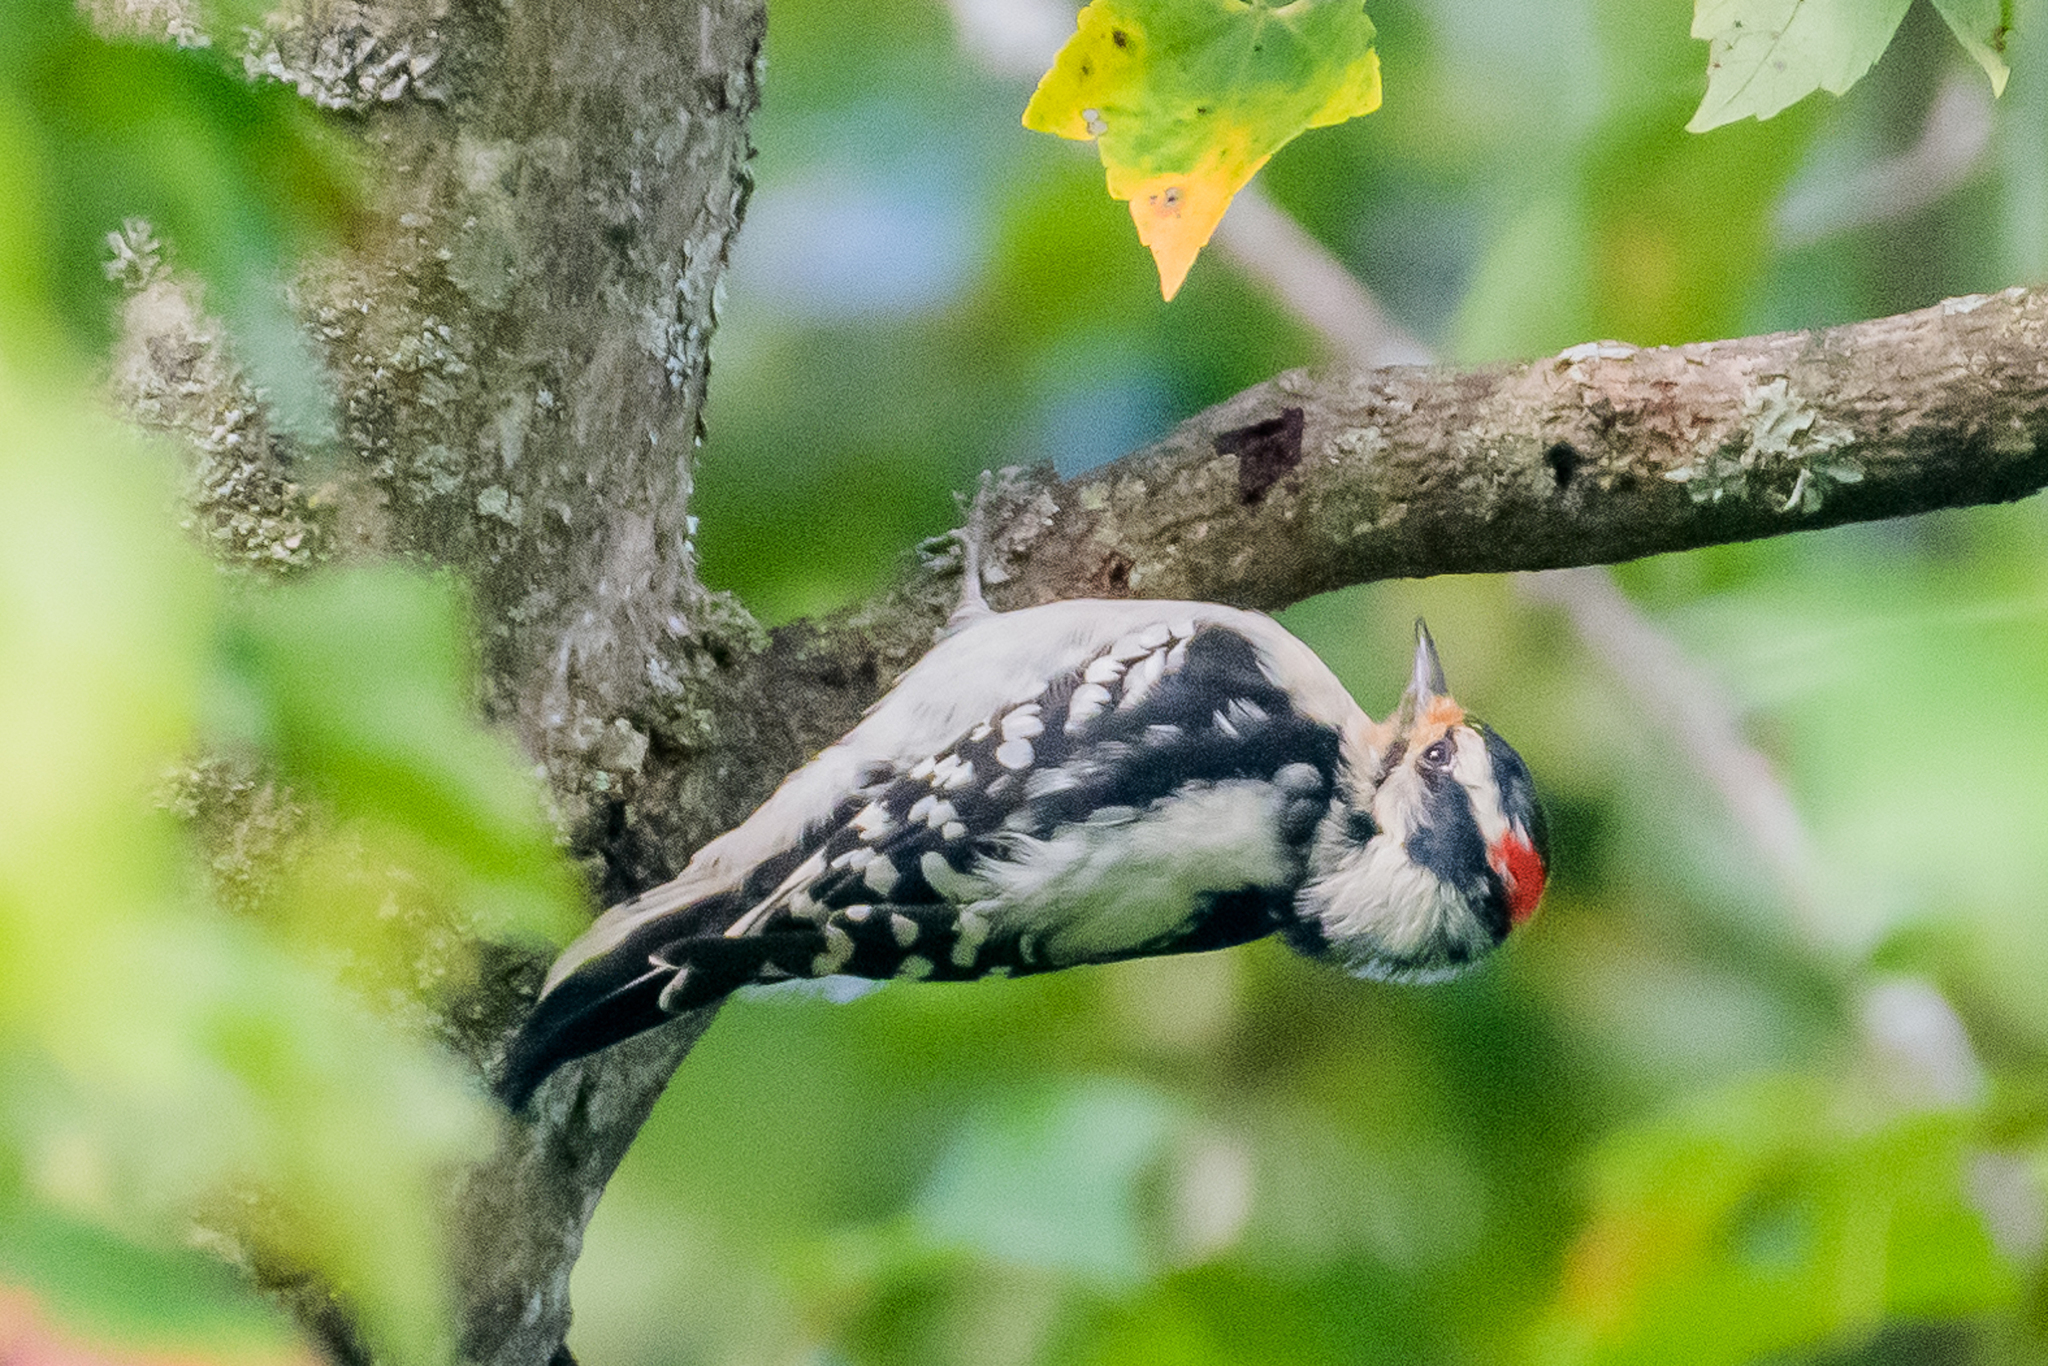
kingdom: Animalia
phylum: Chordata
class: Aves
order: Piciformes
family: Picidae
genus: Dryobates
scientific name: Dryobates pubescens
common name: Downy woodpecker
